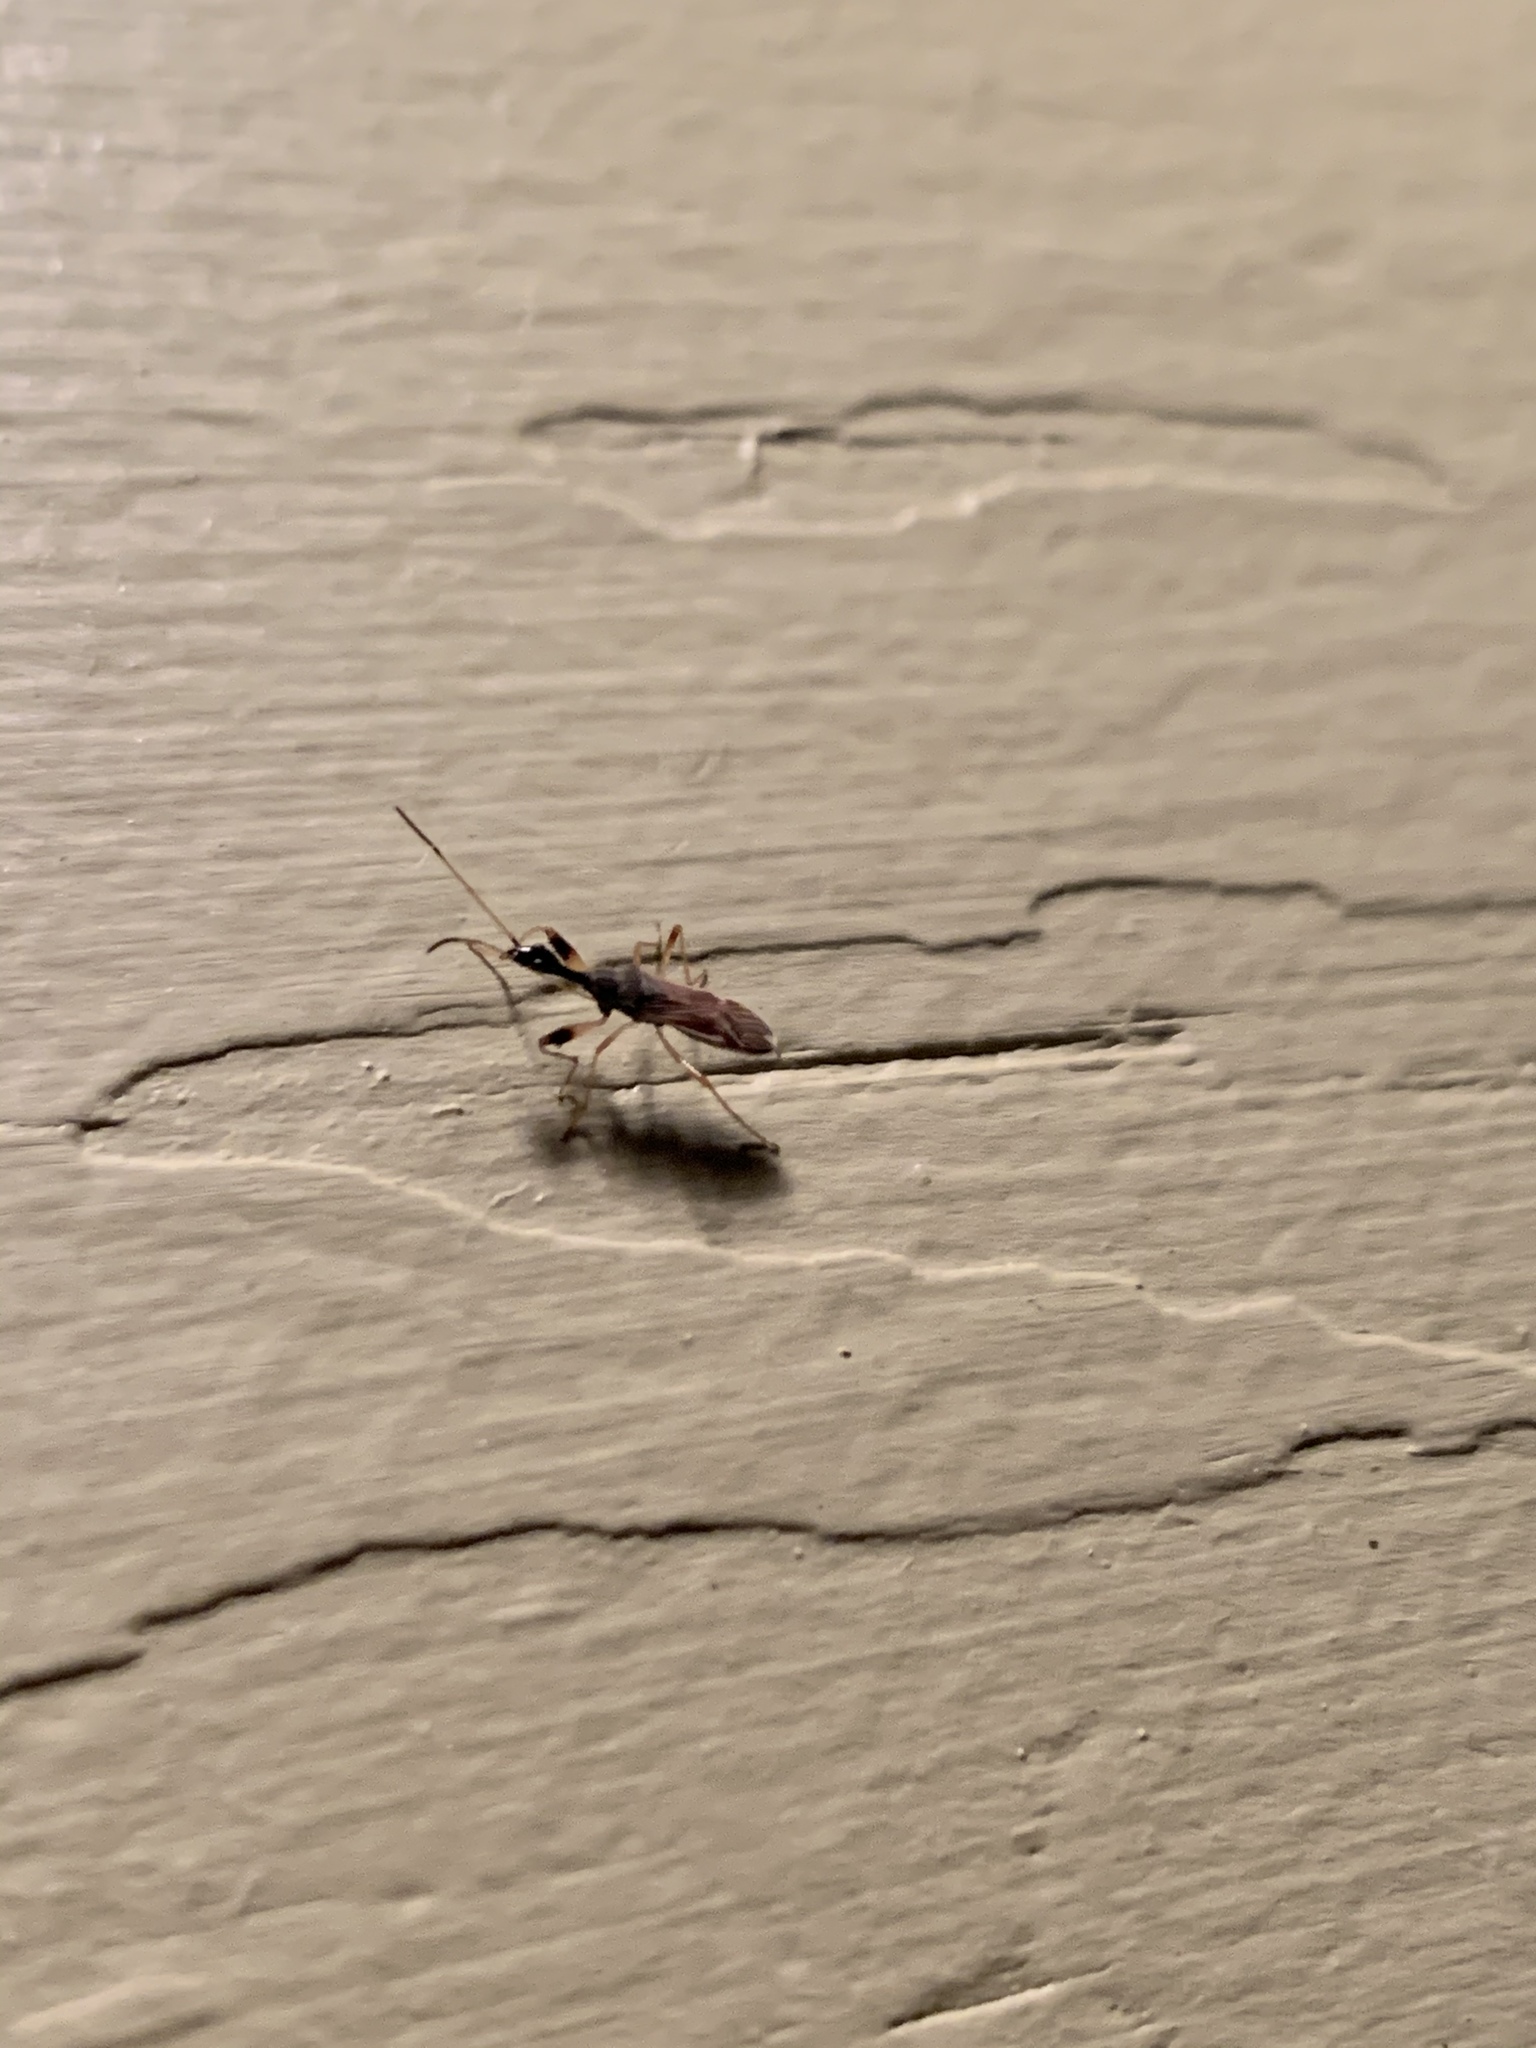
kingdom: Animalia
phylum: Arthropoda
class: Insecta
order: Hemiptera
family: Rhyparochromidae
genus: Myodocha
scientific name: Myodocha serripes
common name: Long-necked seed bug
